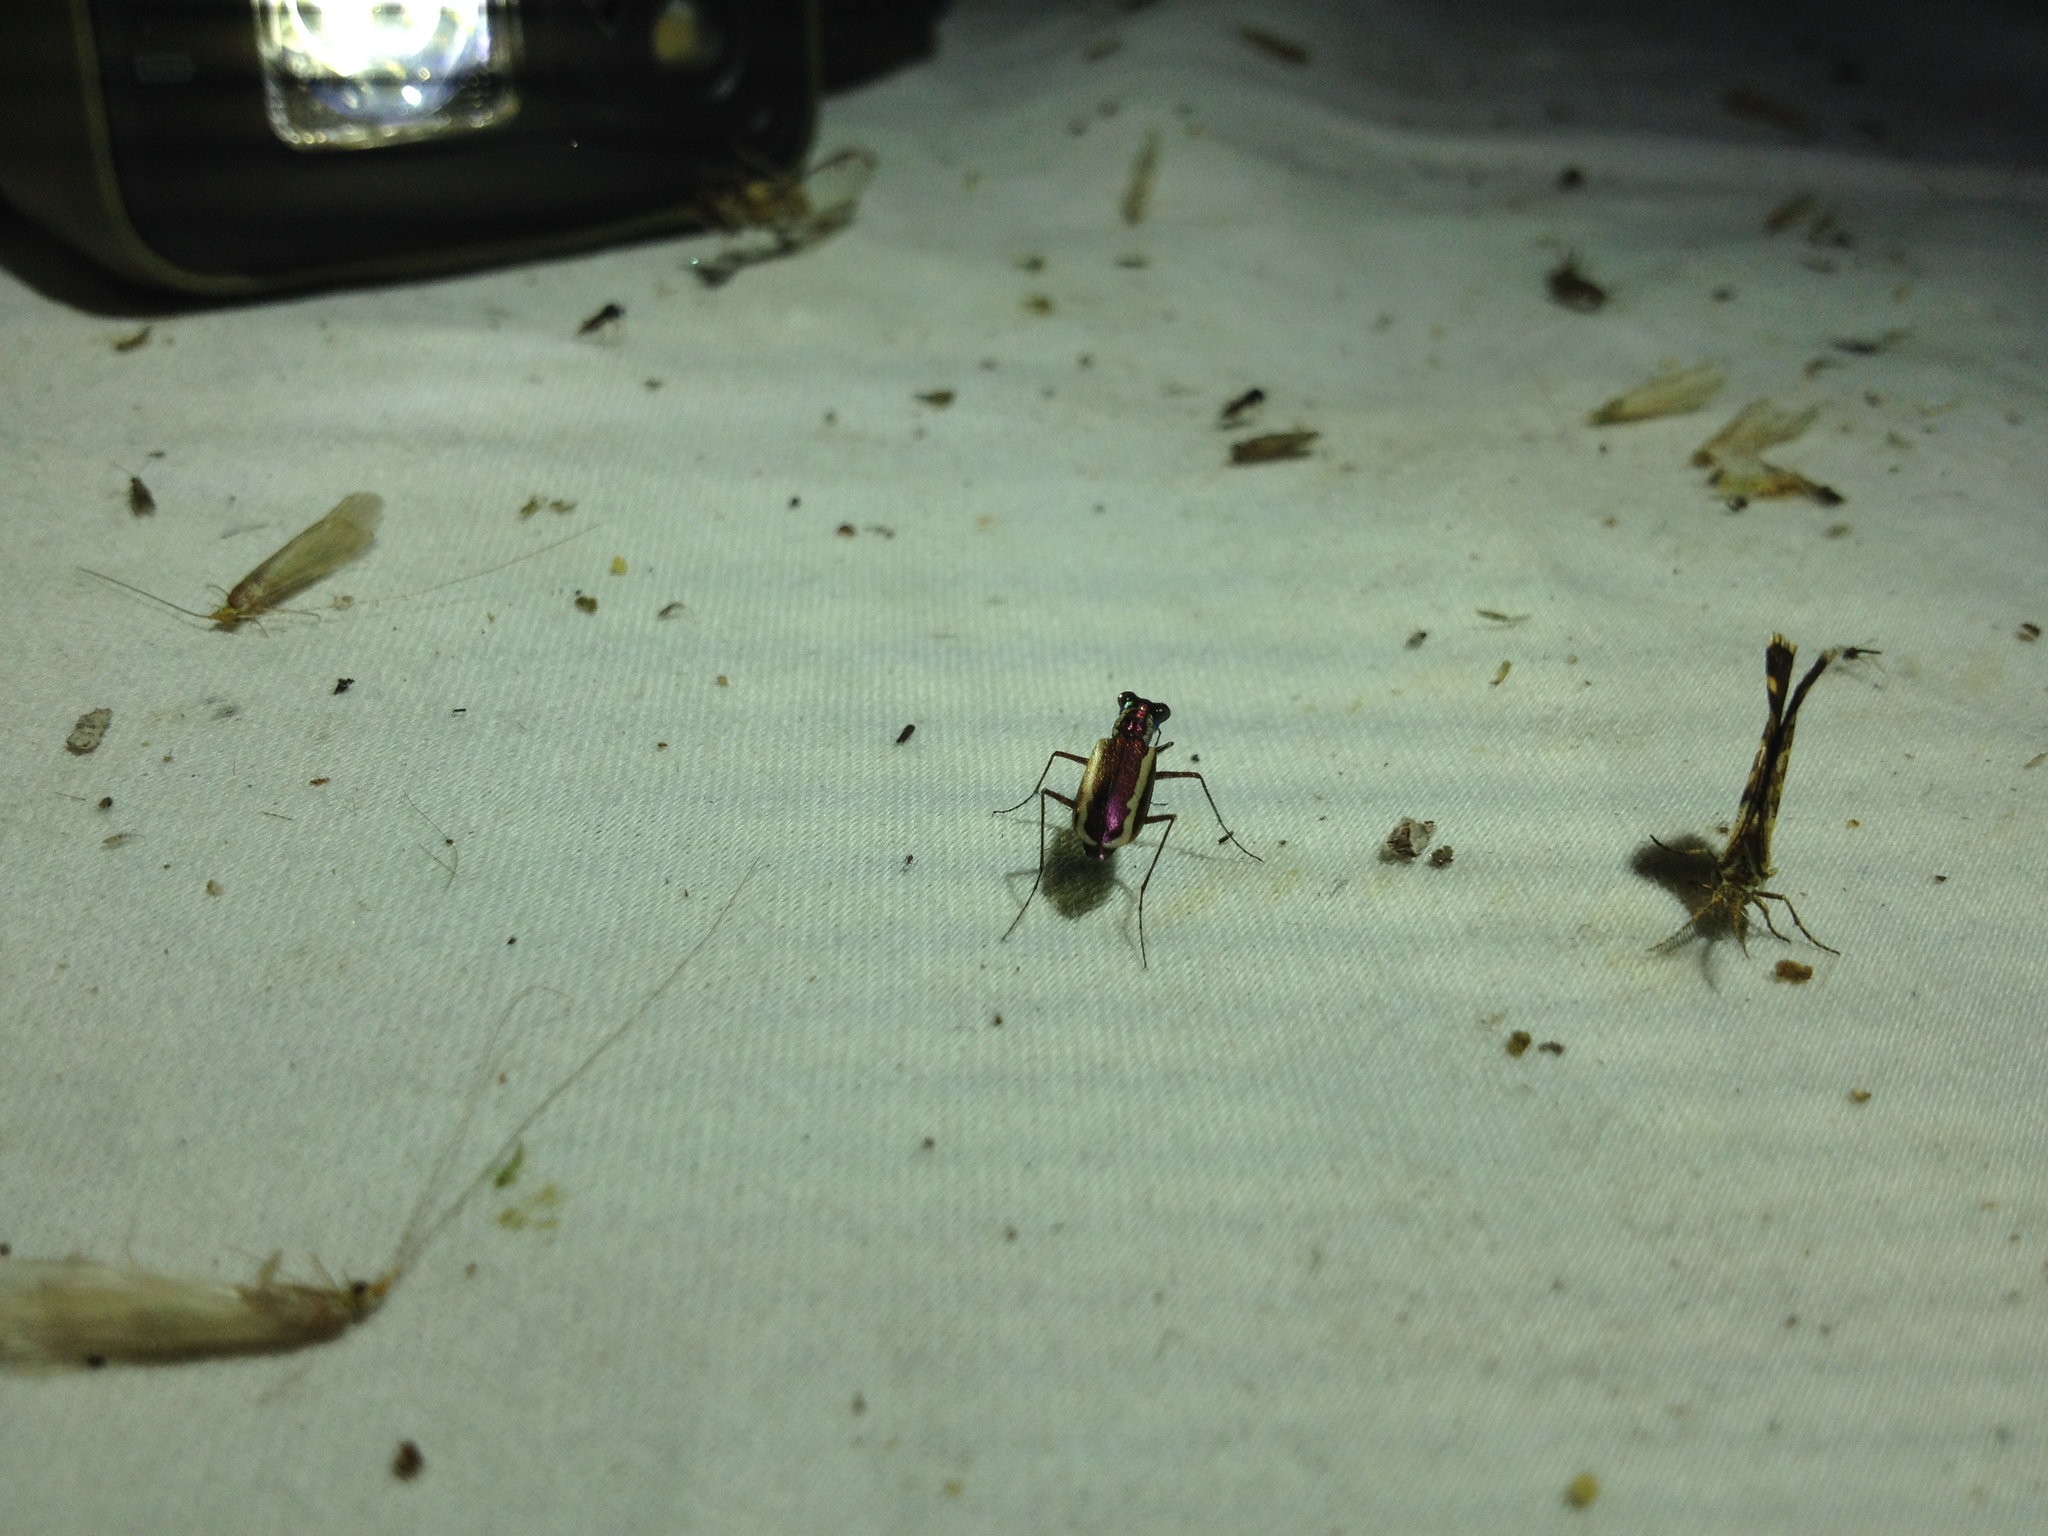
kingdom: Animalia
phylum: Arthropoda
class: Insecta
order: Coleoptera
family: Carabidae
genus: Cylindera
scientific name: Cylindera lemniscata
